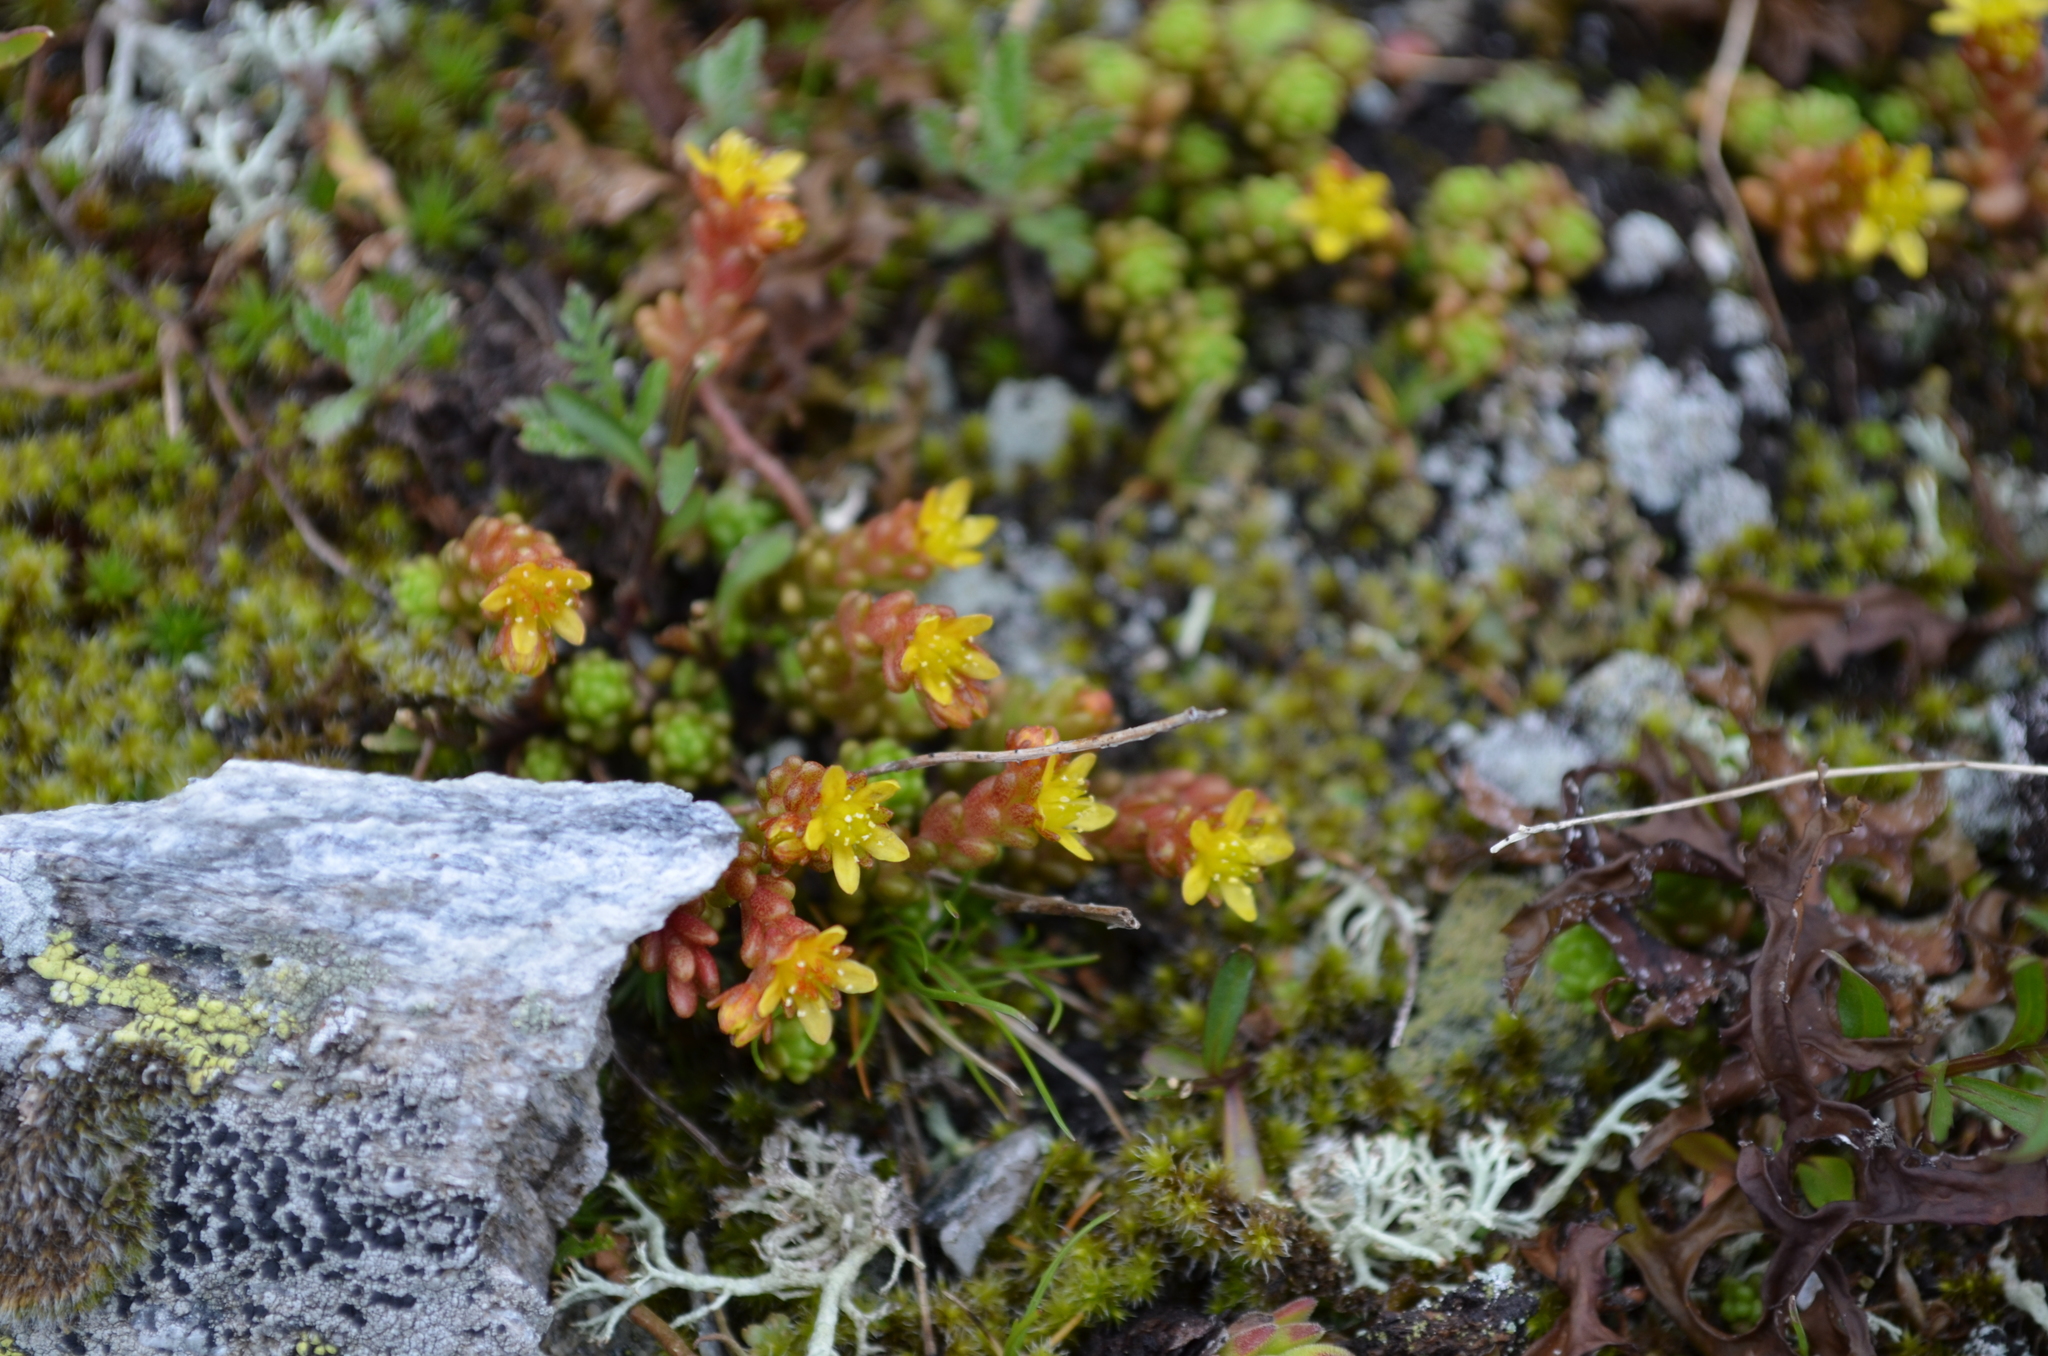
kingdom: Plantae
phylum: Tracheophyta
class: Magnoliopsida
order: Saxifragales
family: Crassulaceae
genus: Sedum
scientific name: Sedum alpestre
